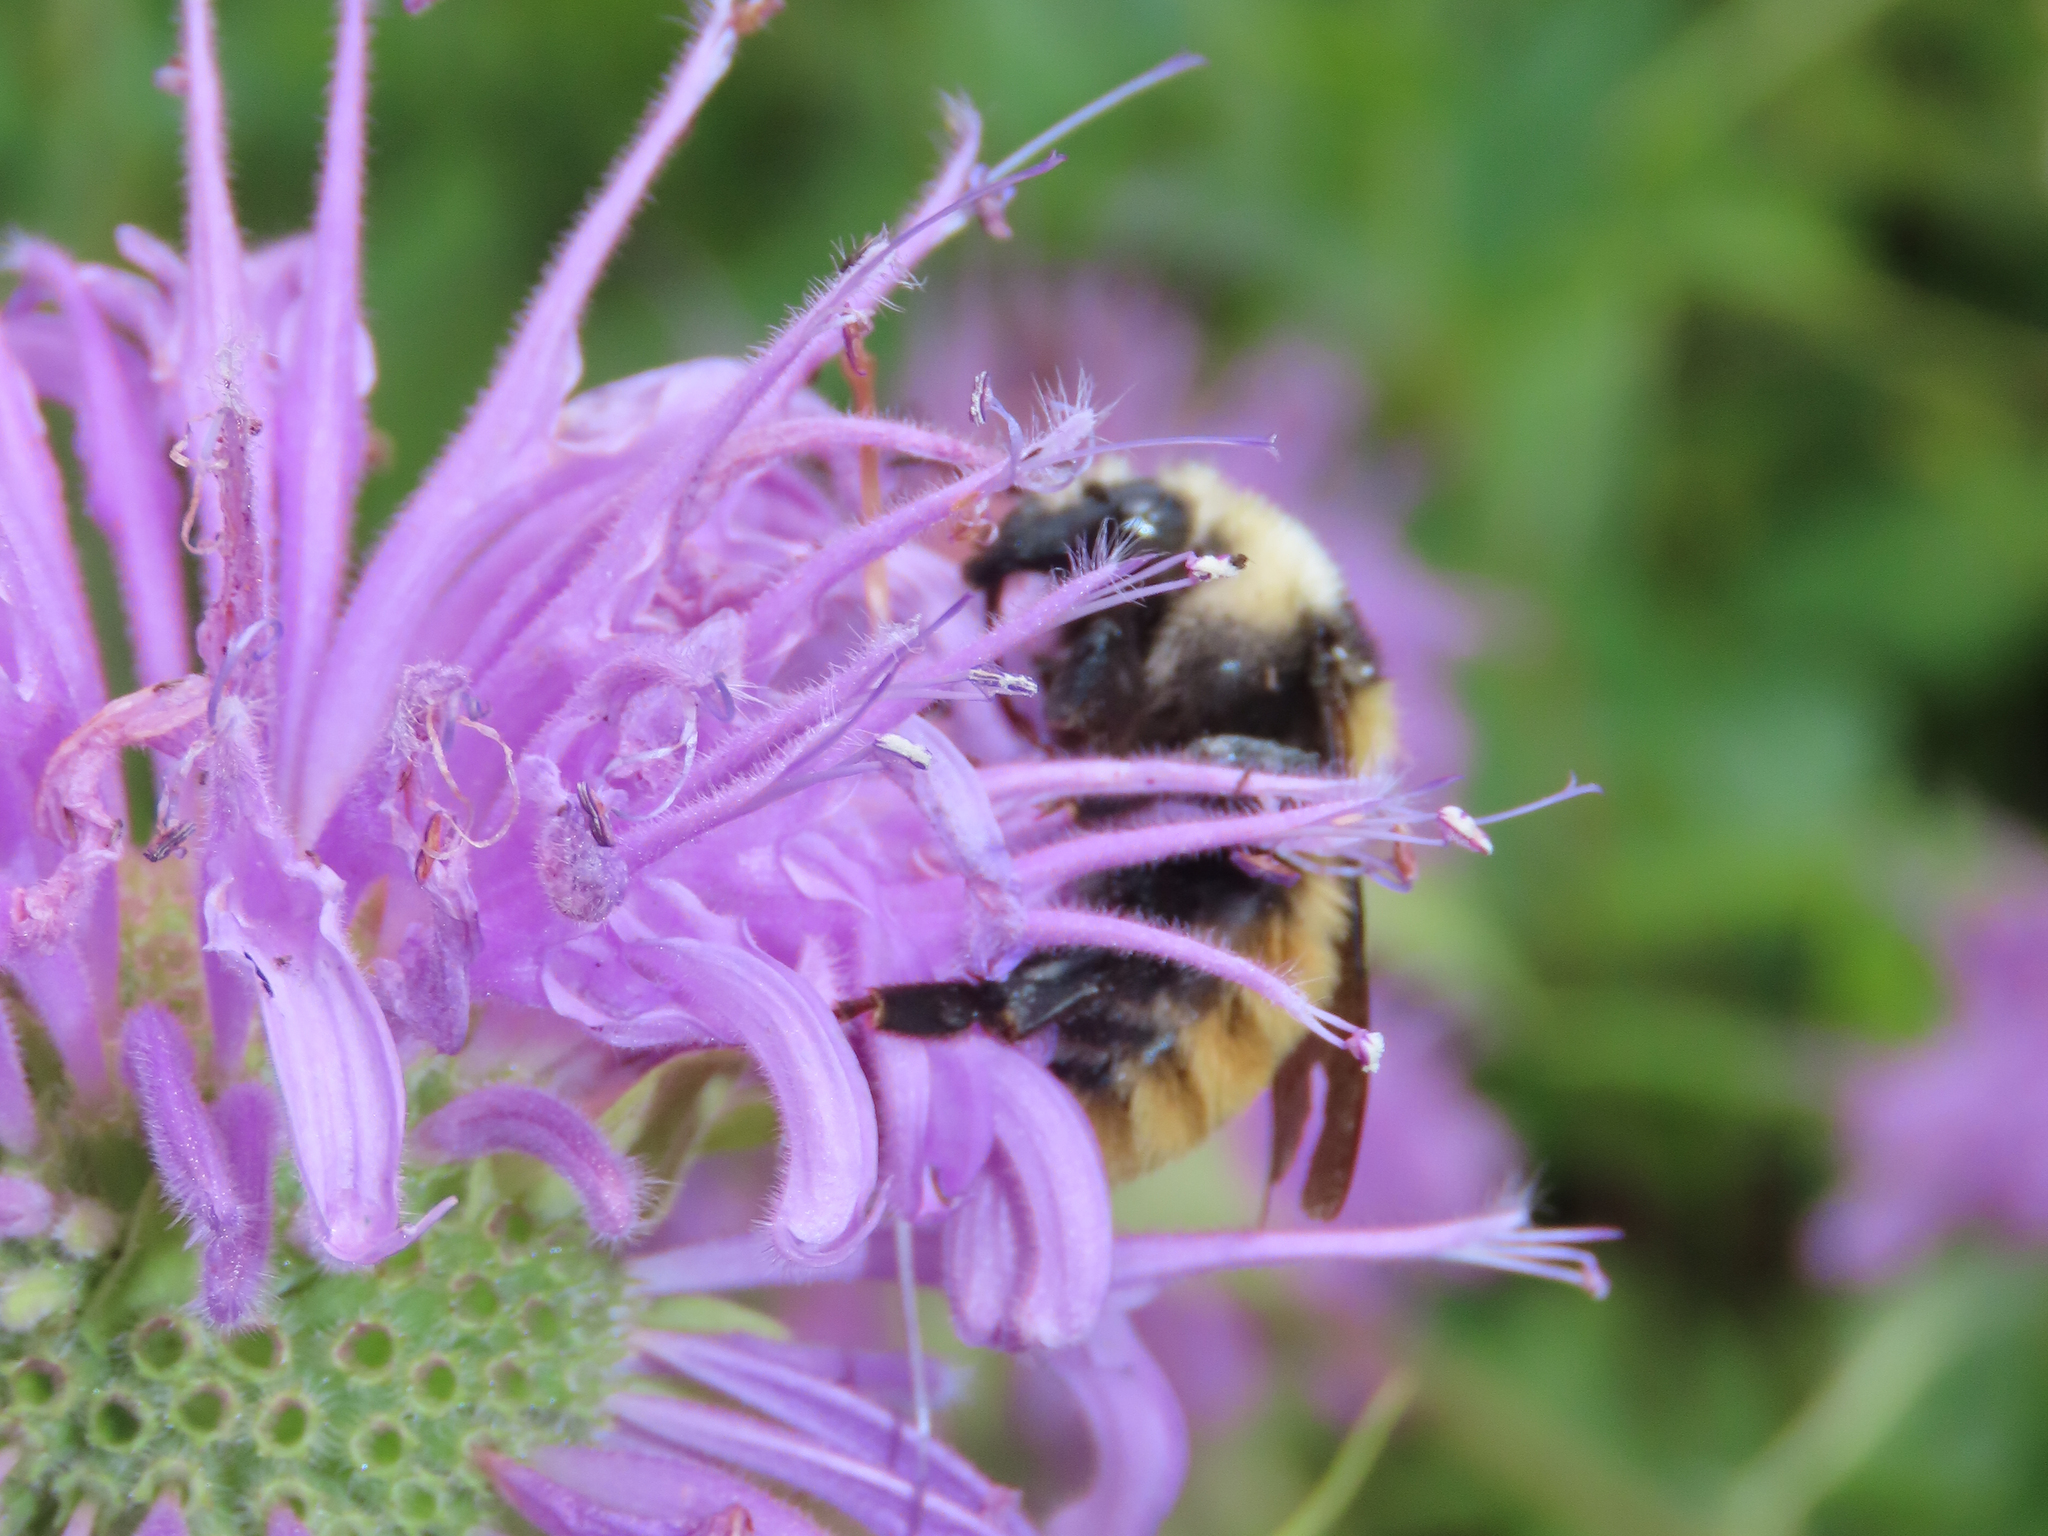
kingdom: Animalia
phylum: Arthropoda
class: Insecta
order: Hymenoptera
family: Apidae
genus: Bombus
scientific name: Bombus appositus
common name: White-shouldered bumble bee
